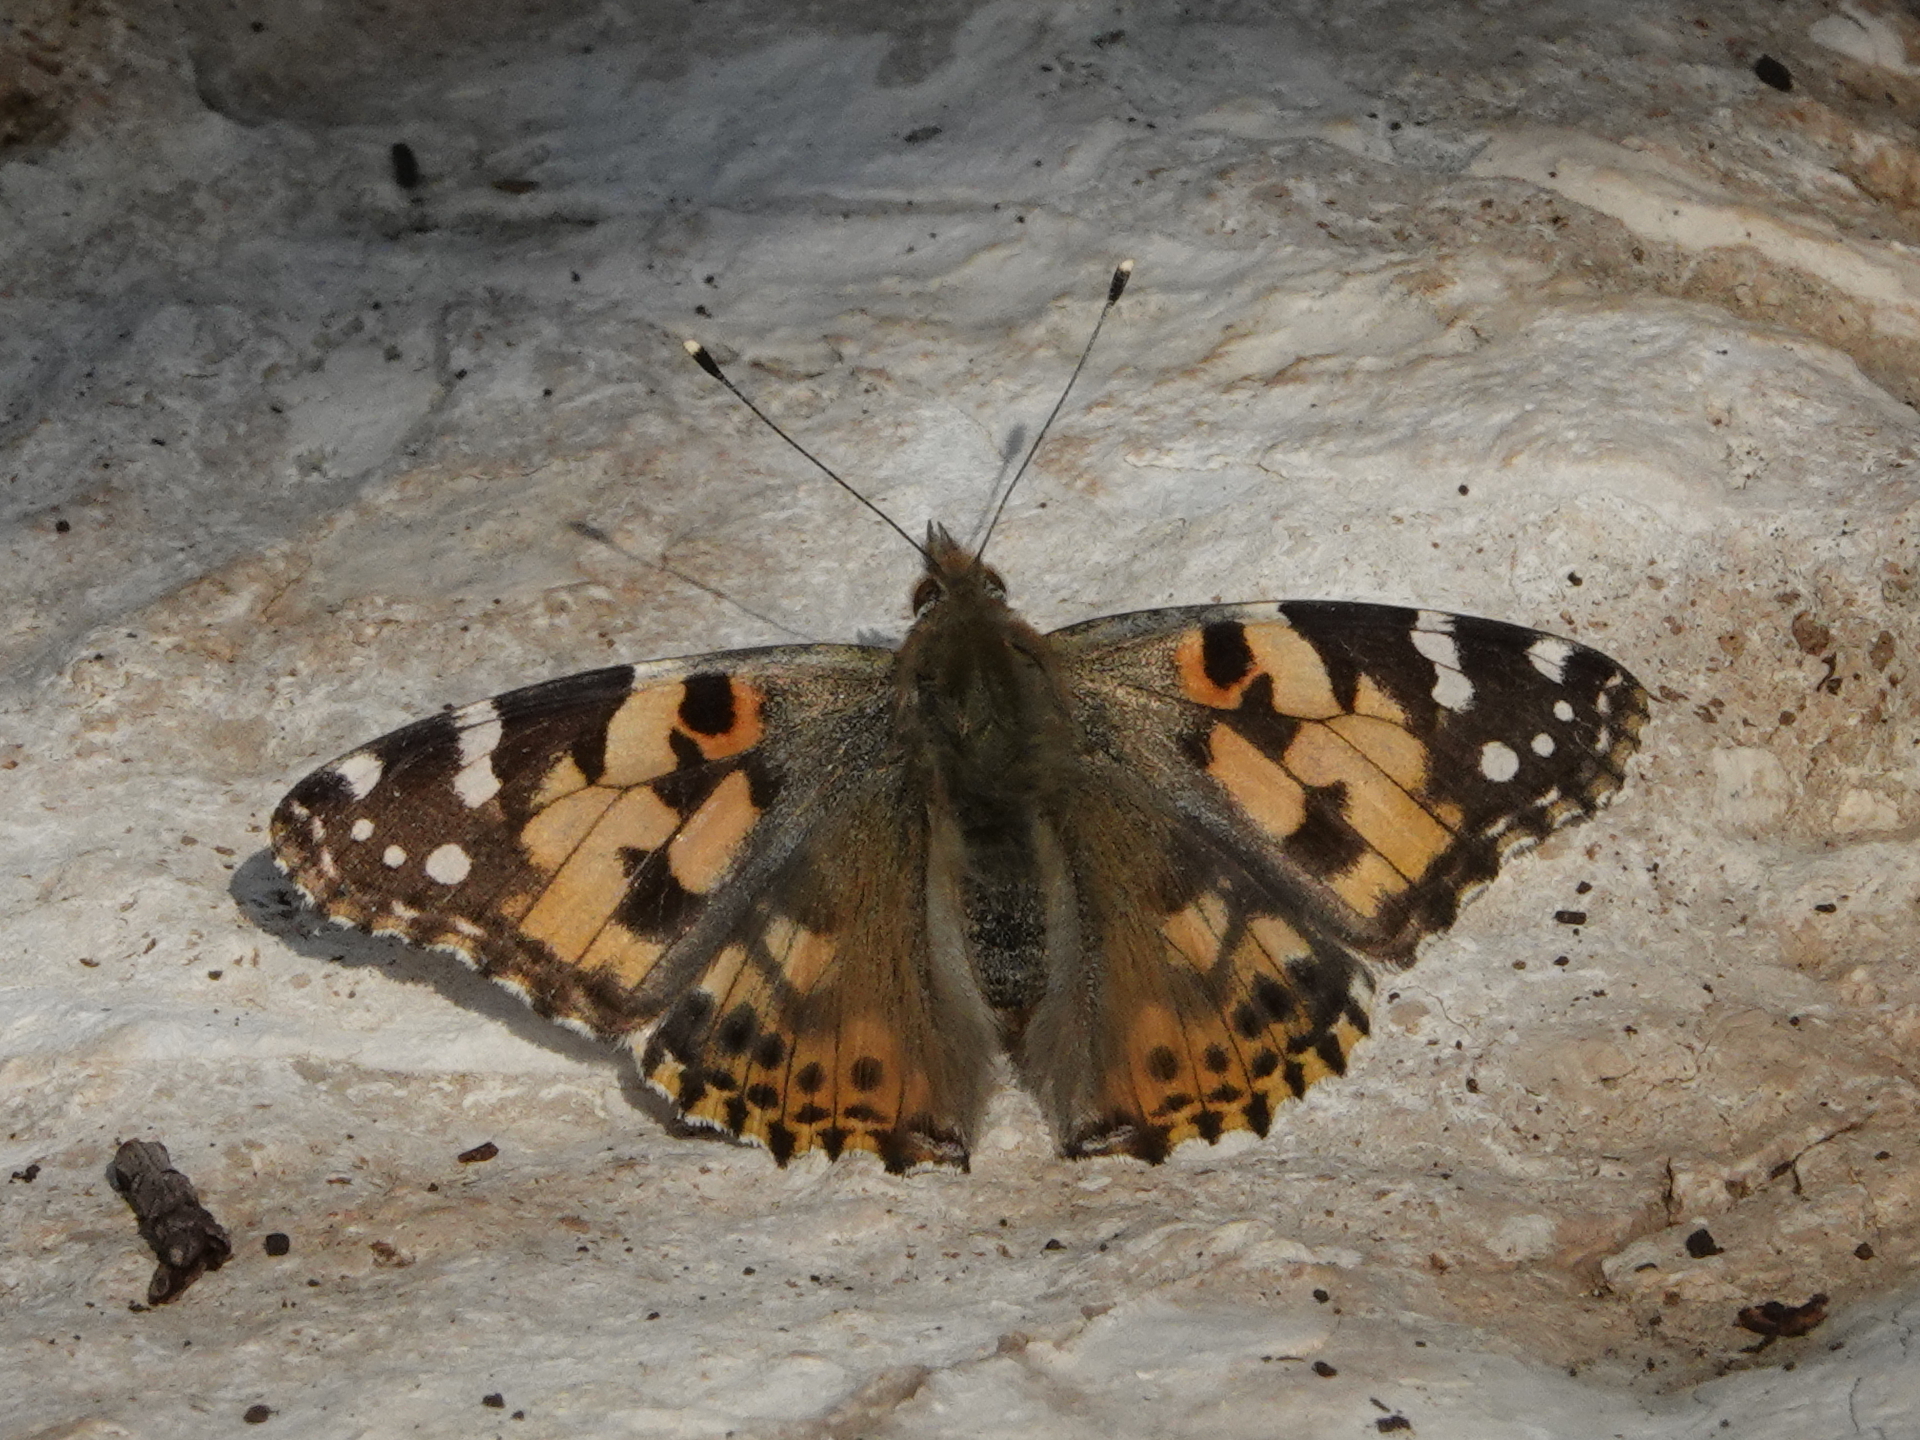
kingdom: Animalia
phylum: Arthropoda
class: Insecta
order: Lepidoptera
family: Nymphalidae
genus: Vanessa
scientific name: Vanessa cardui
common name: Painted lady
